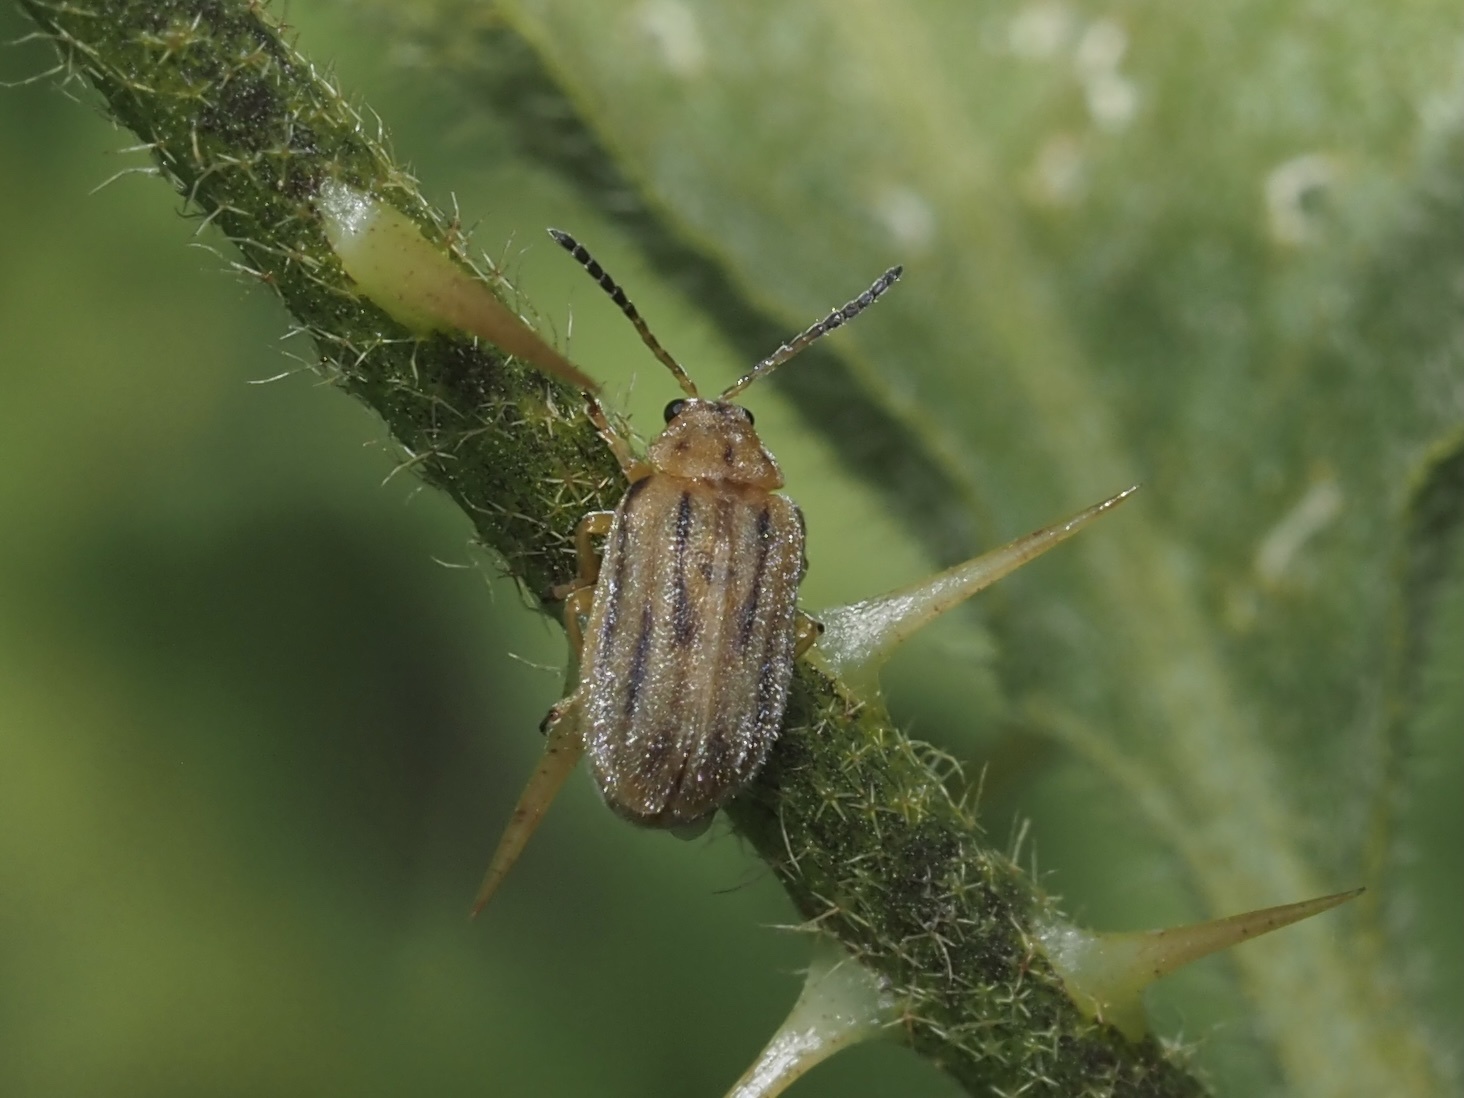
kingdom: Animalia
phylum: Arthropoda
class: Insecta
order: Coleoptera
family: Chrysomelidae
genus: Ophraella
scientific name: Ophraella communa
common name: Ragweed leaf beetle
